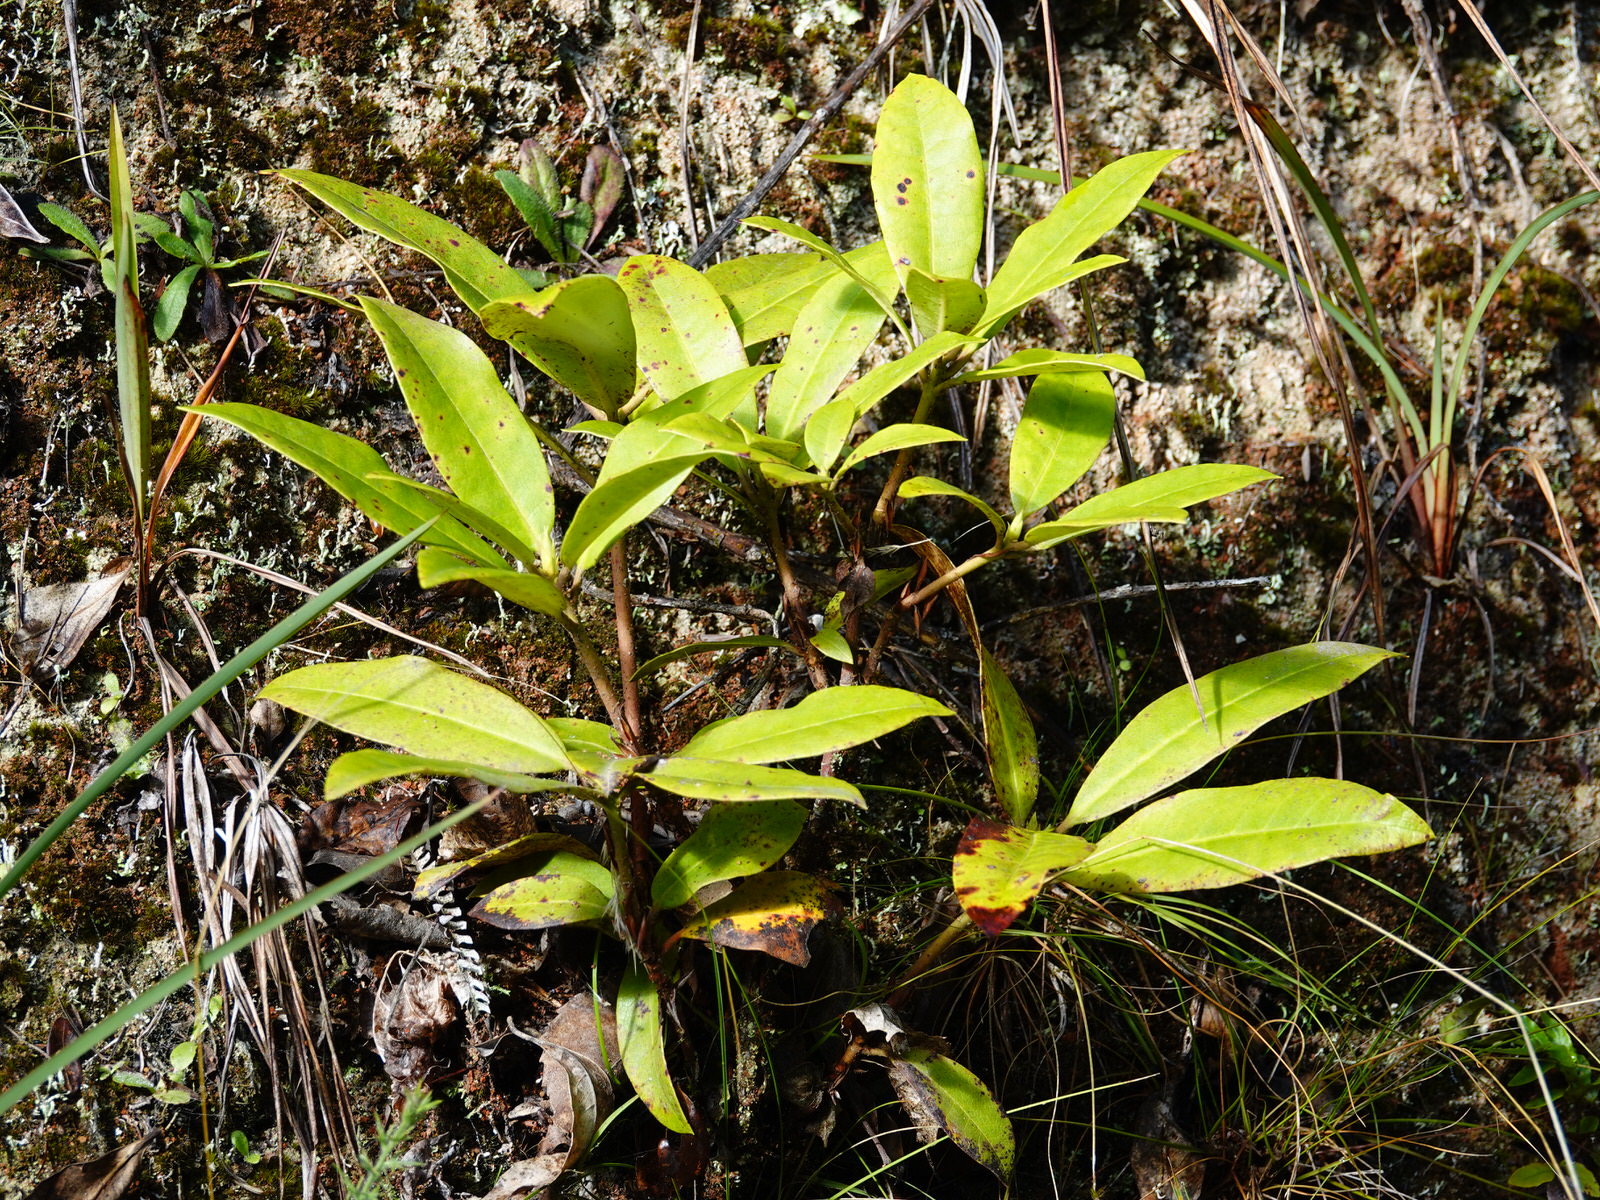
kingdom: Plantae
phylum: Tracheophyta
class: Magnoliopsida
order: Ericales
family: Ericaceae
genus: Rhododendron
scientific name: Rhododendron ponticum
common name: Rhododendron
